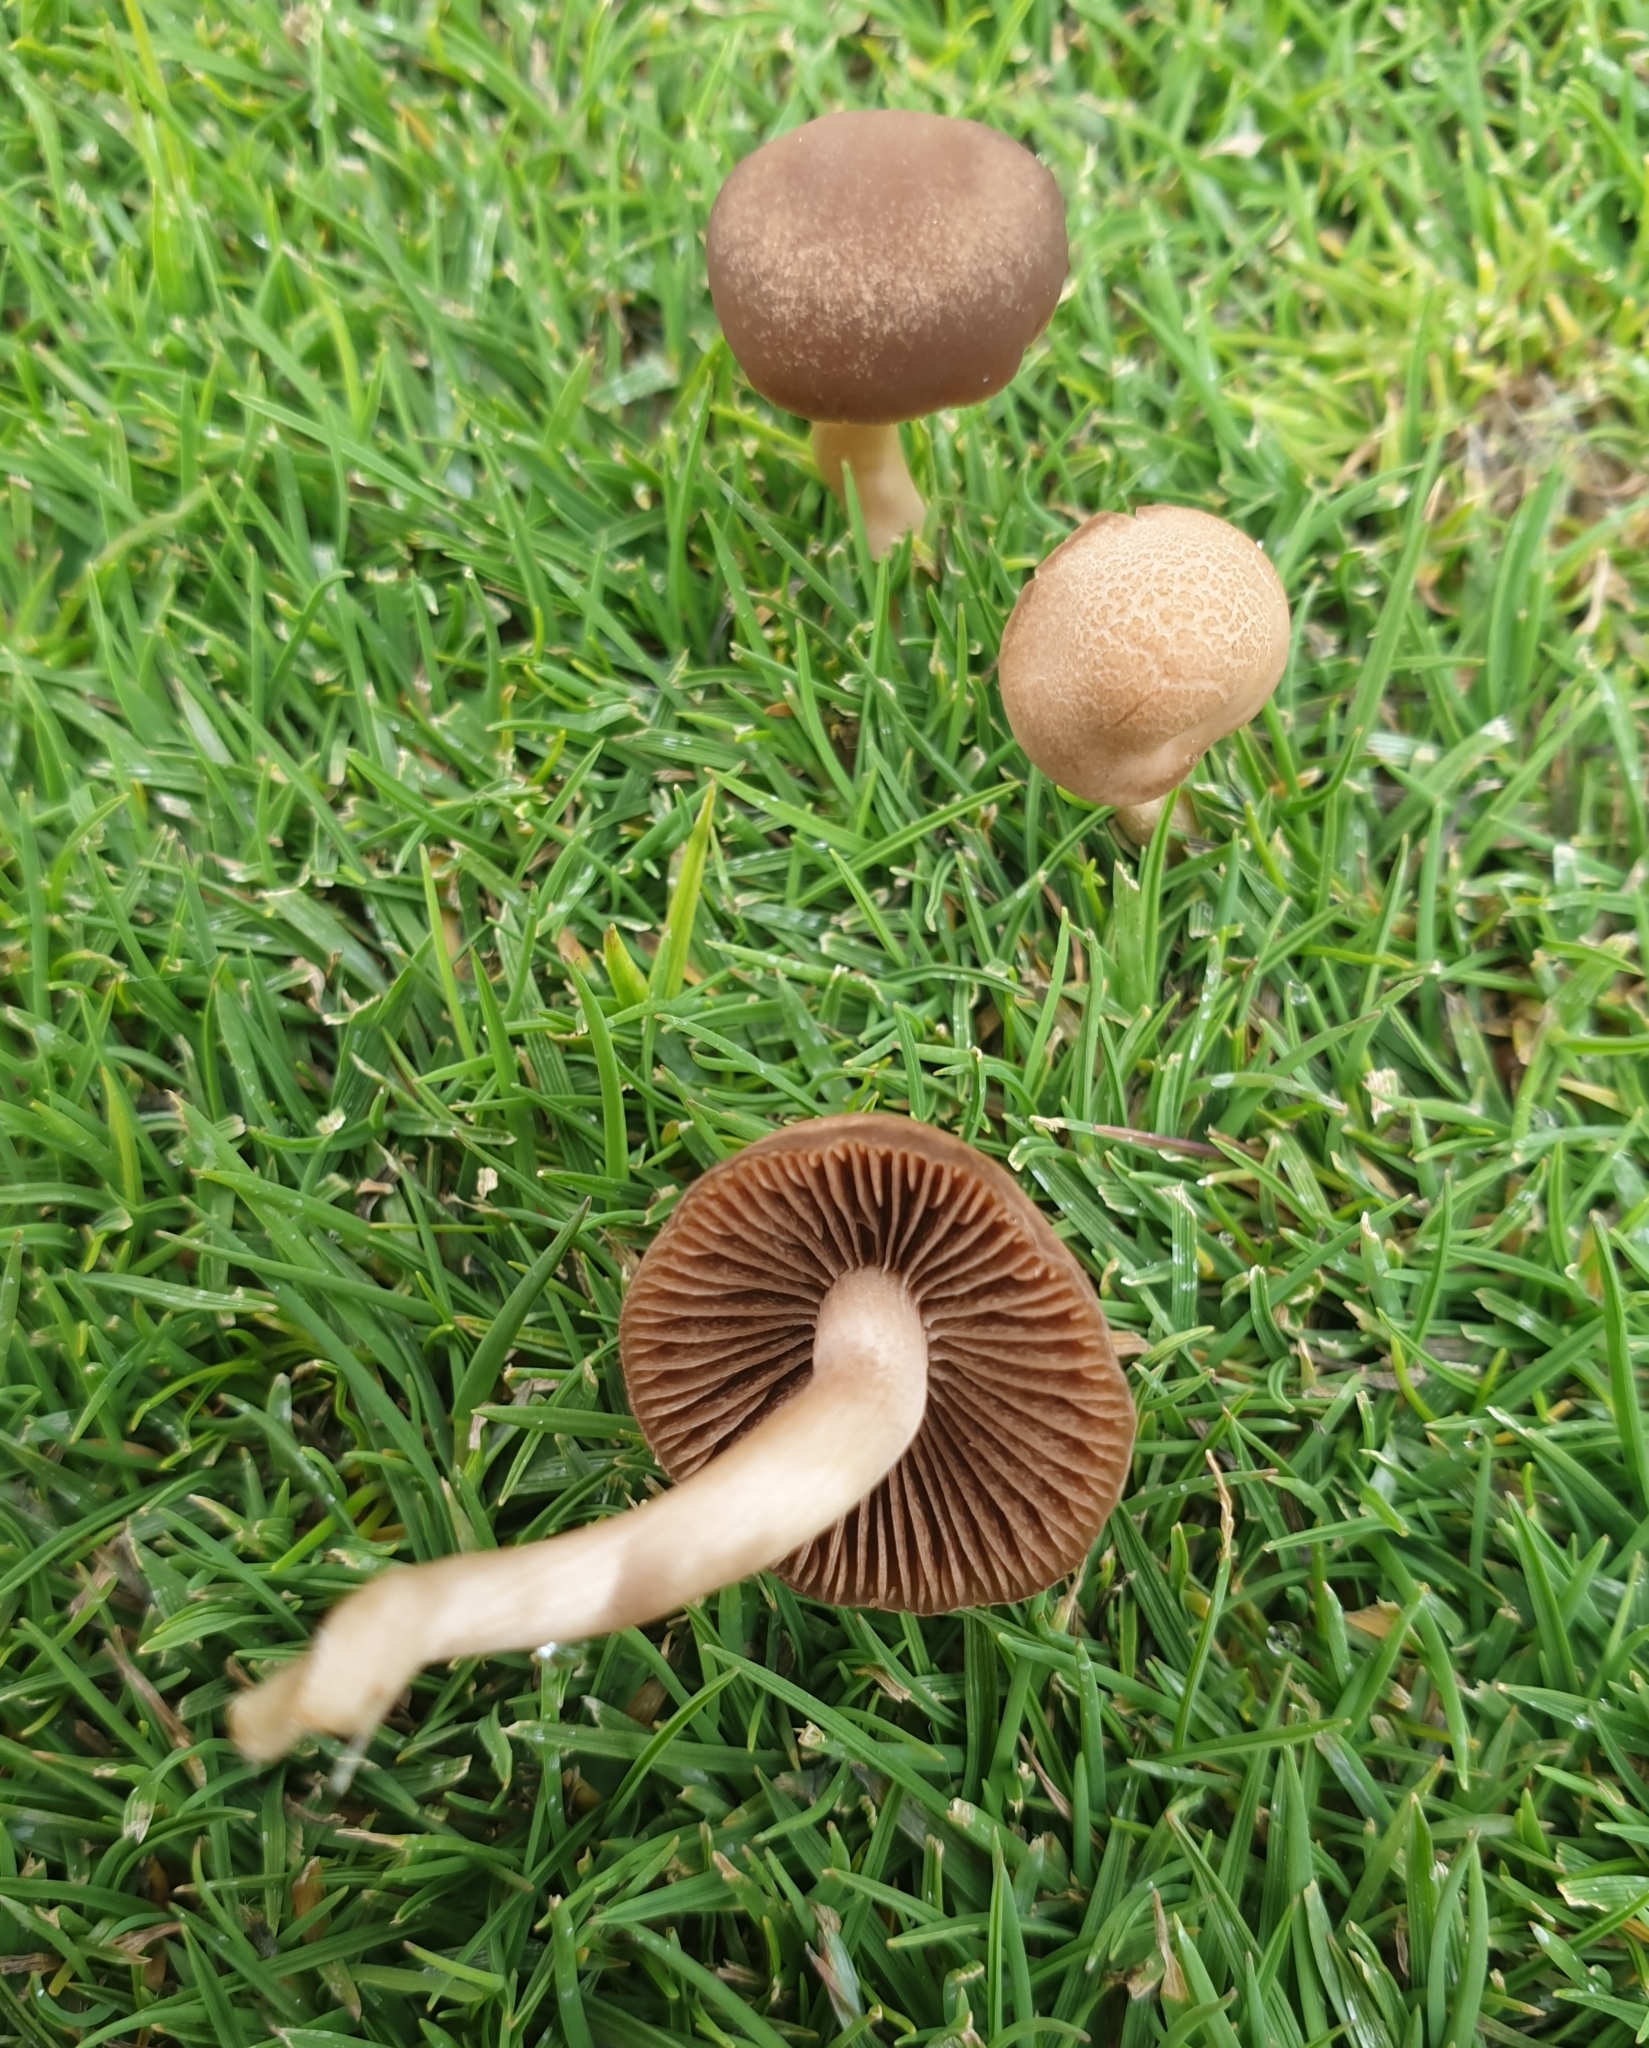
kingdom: Fungi
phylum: Basidiomycota
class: Agaricomycetes
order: Agaricales
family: Bolbitiaceae
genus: Panaeolina
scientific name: Panaeolina foenisecii
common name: Brown hay cap
